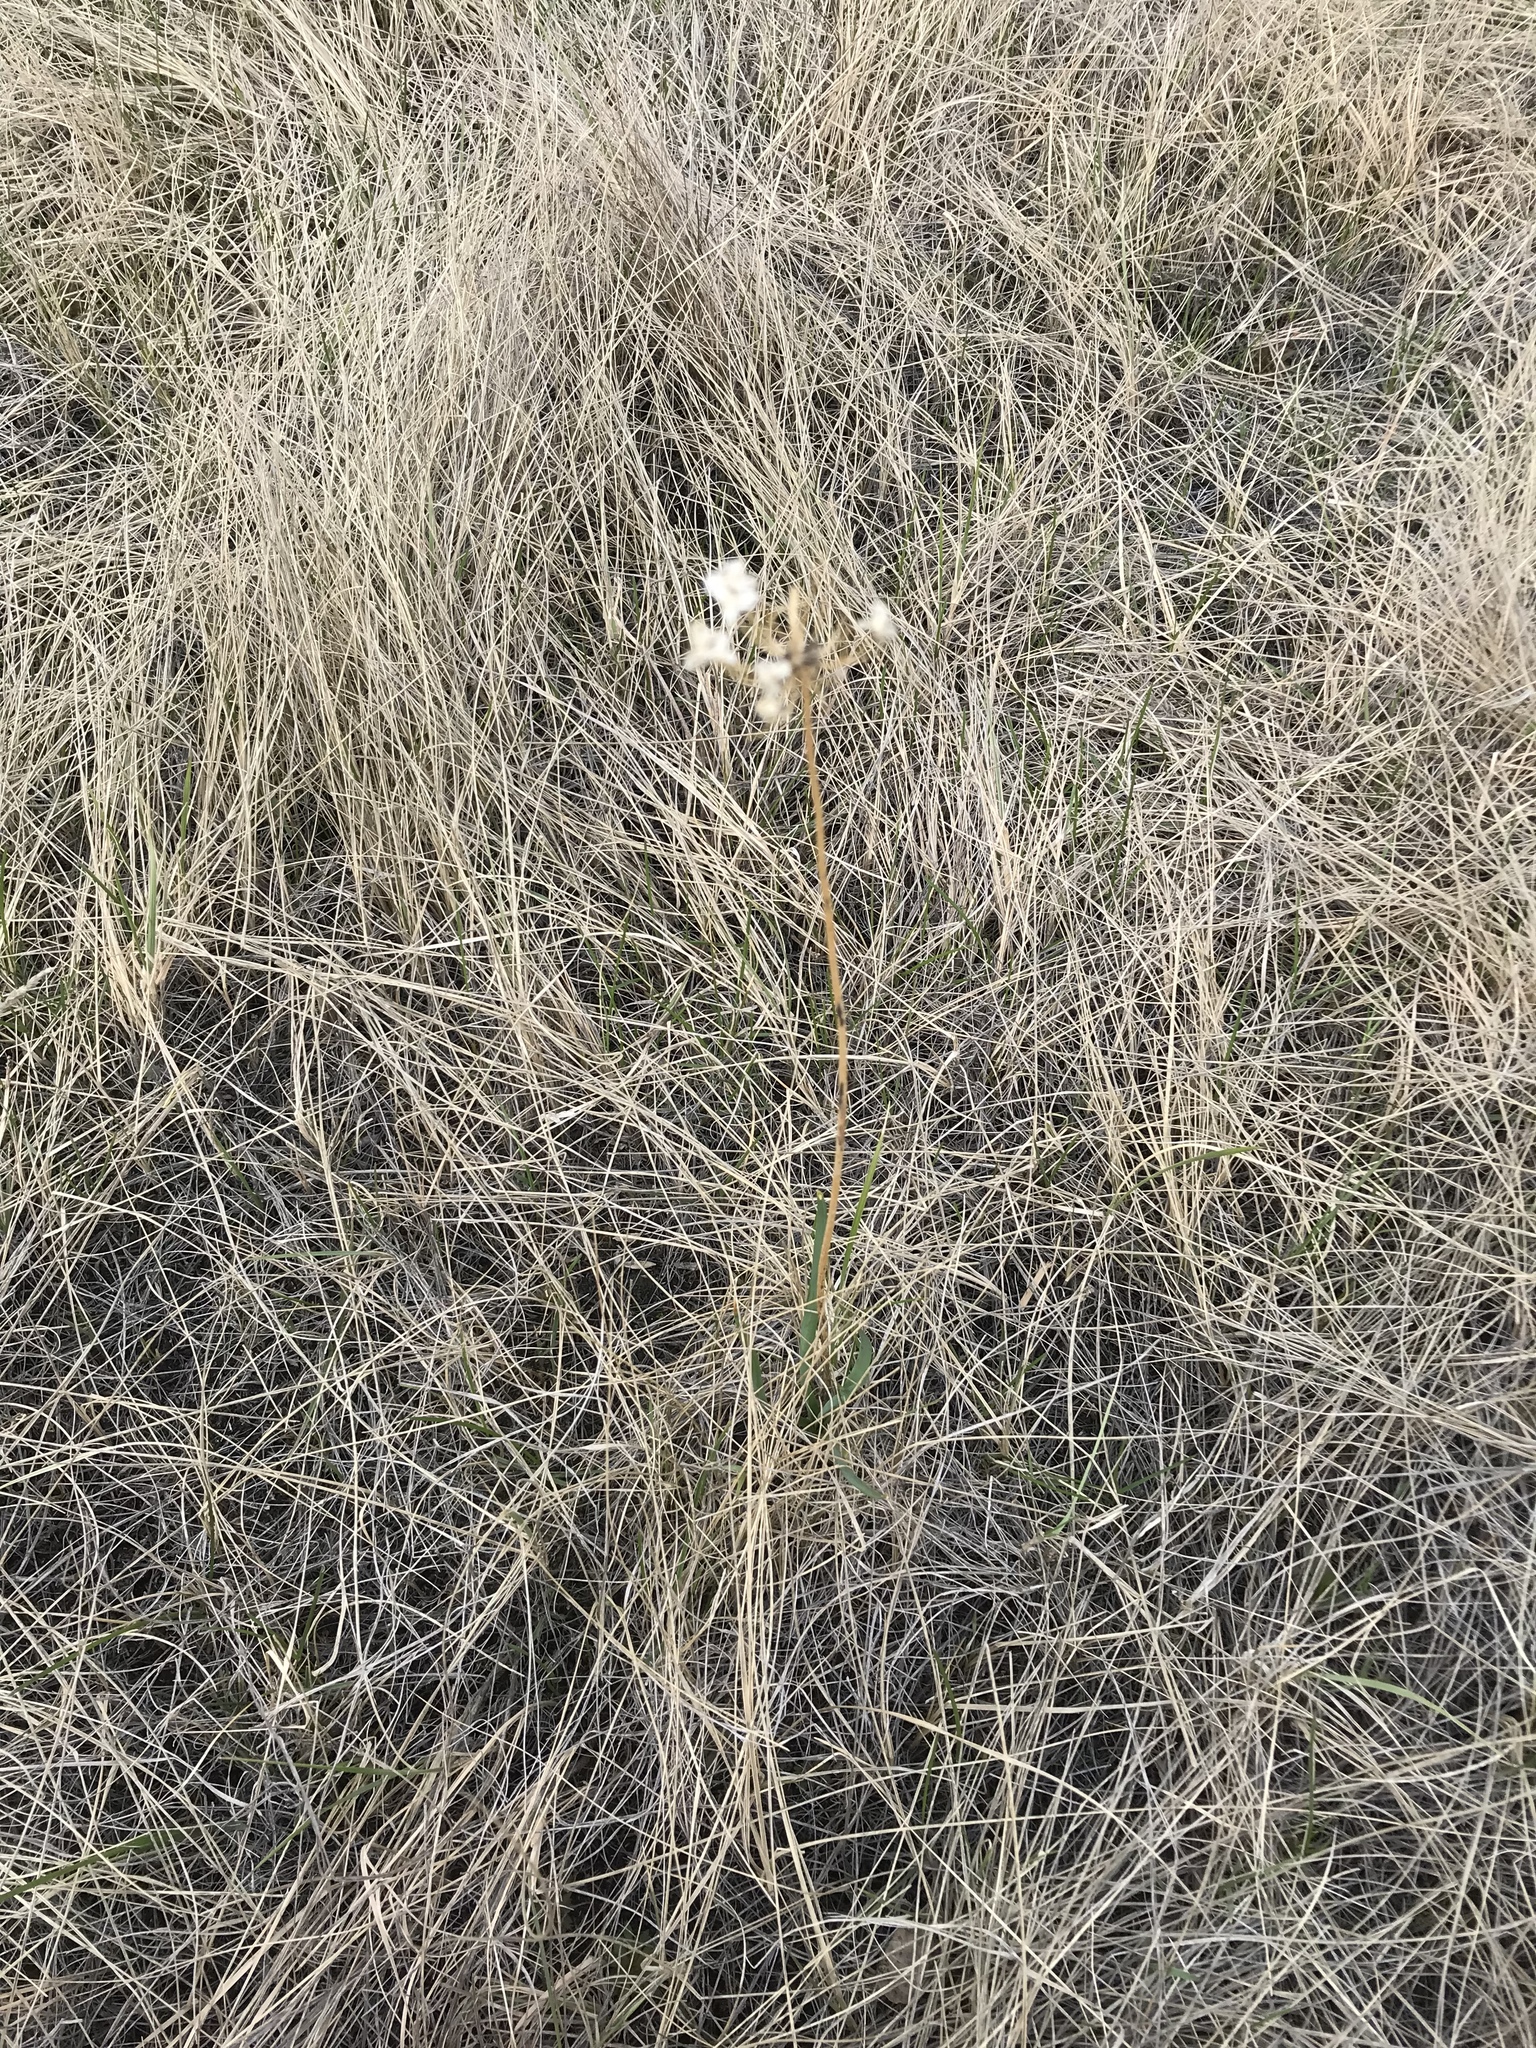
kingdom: Plantae
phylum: Tracheophyta
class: Liliopsida
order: Asparagales
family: Amaryllidaceae
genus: Allium
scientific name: Allium cernuum
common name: Nodding onion
